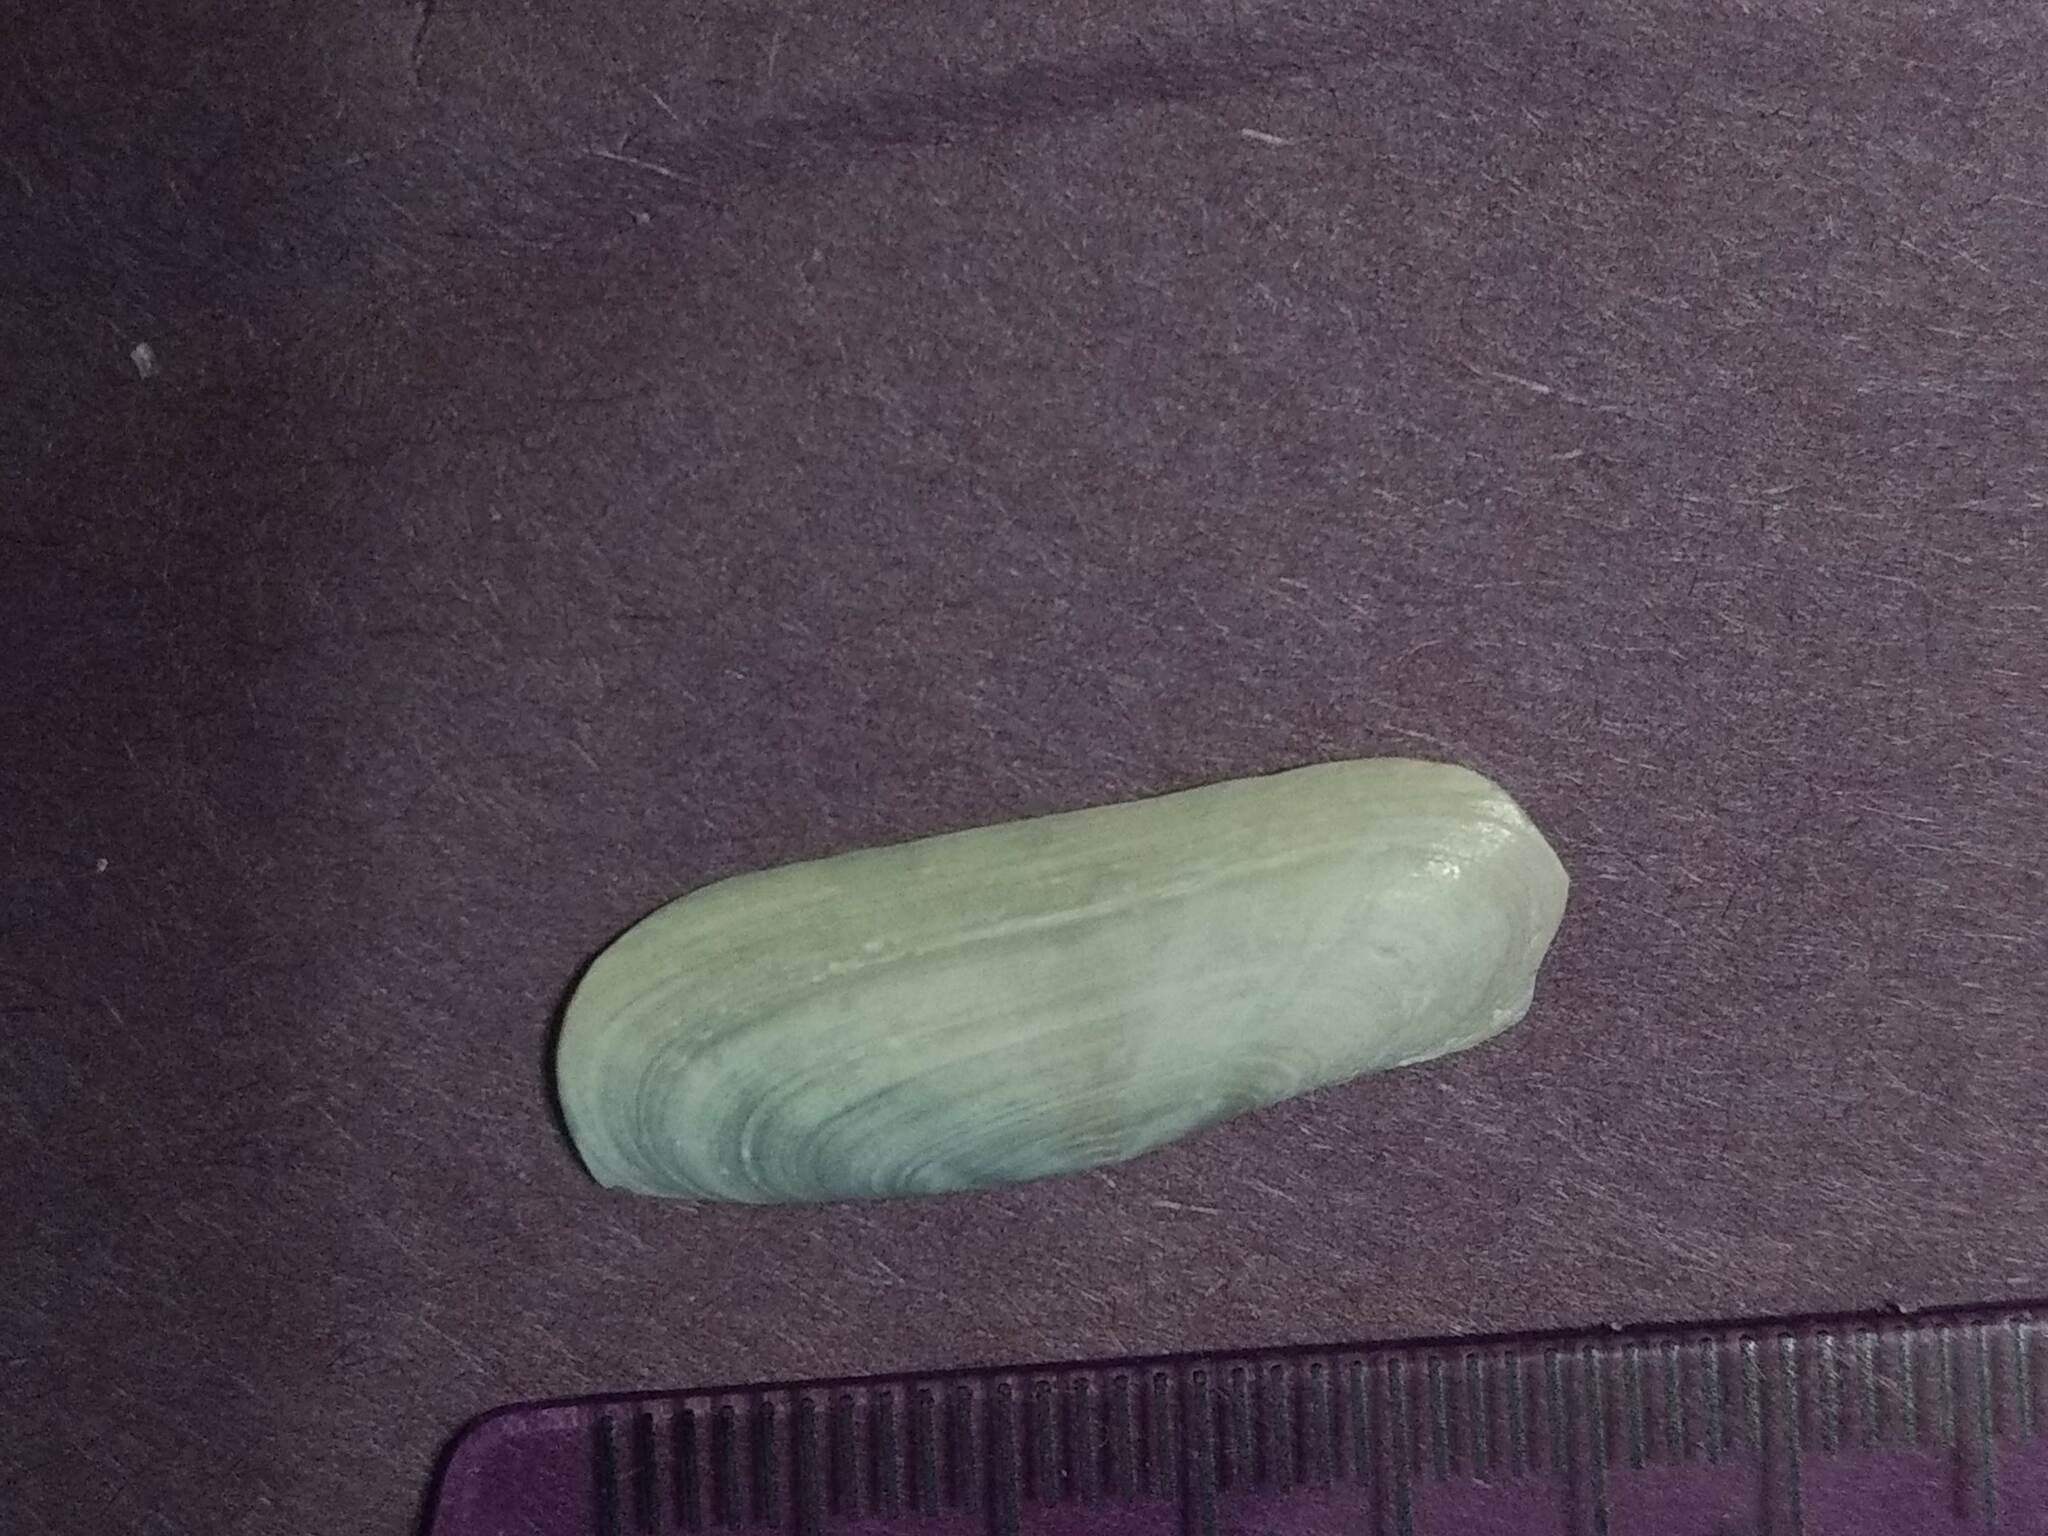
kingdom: Animalia
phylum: Mollusca
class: Bivalvia
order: Cardiida
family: Solecurtidae
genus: Tagelus
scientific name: Tagelus plebeius
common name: Stout tagelus
